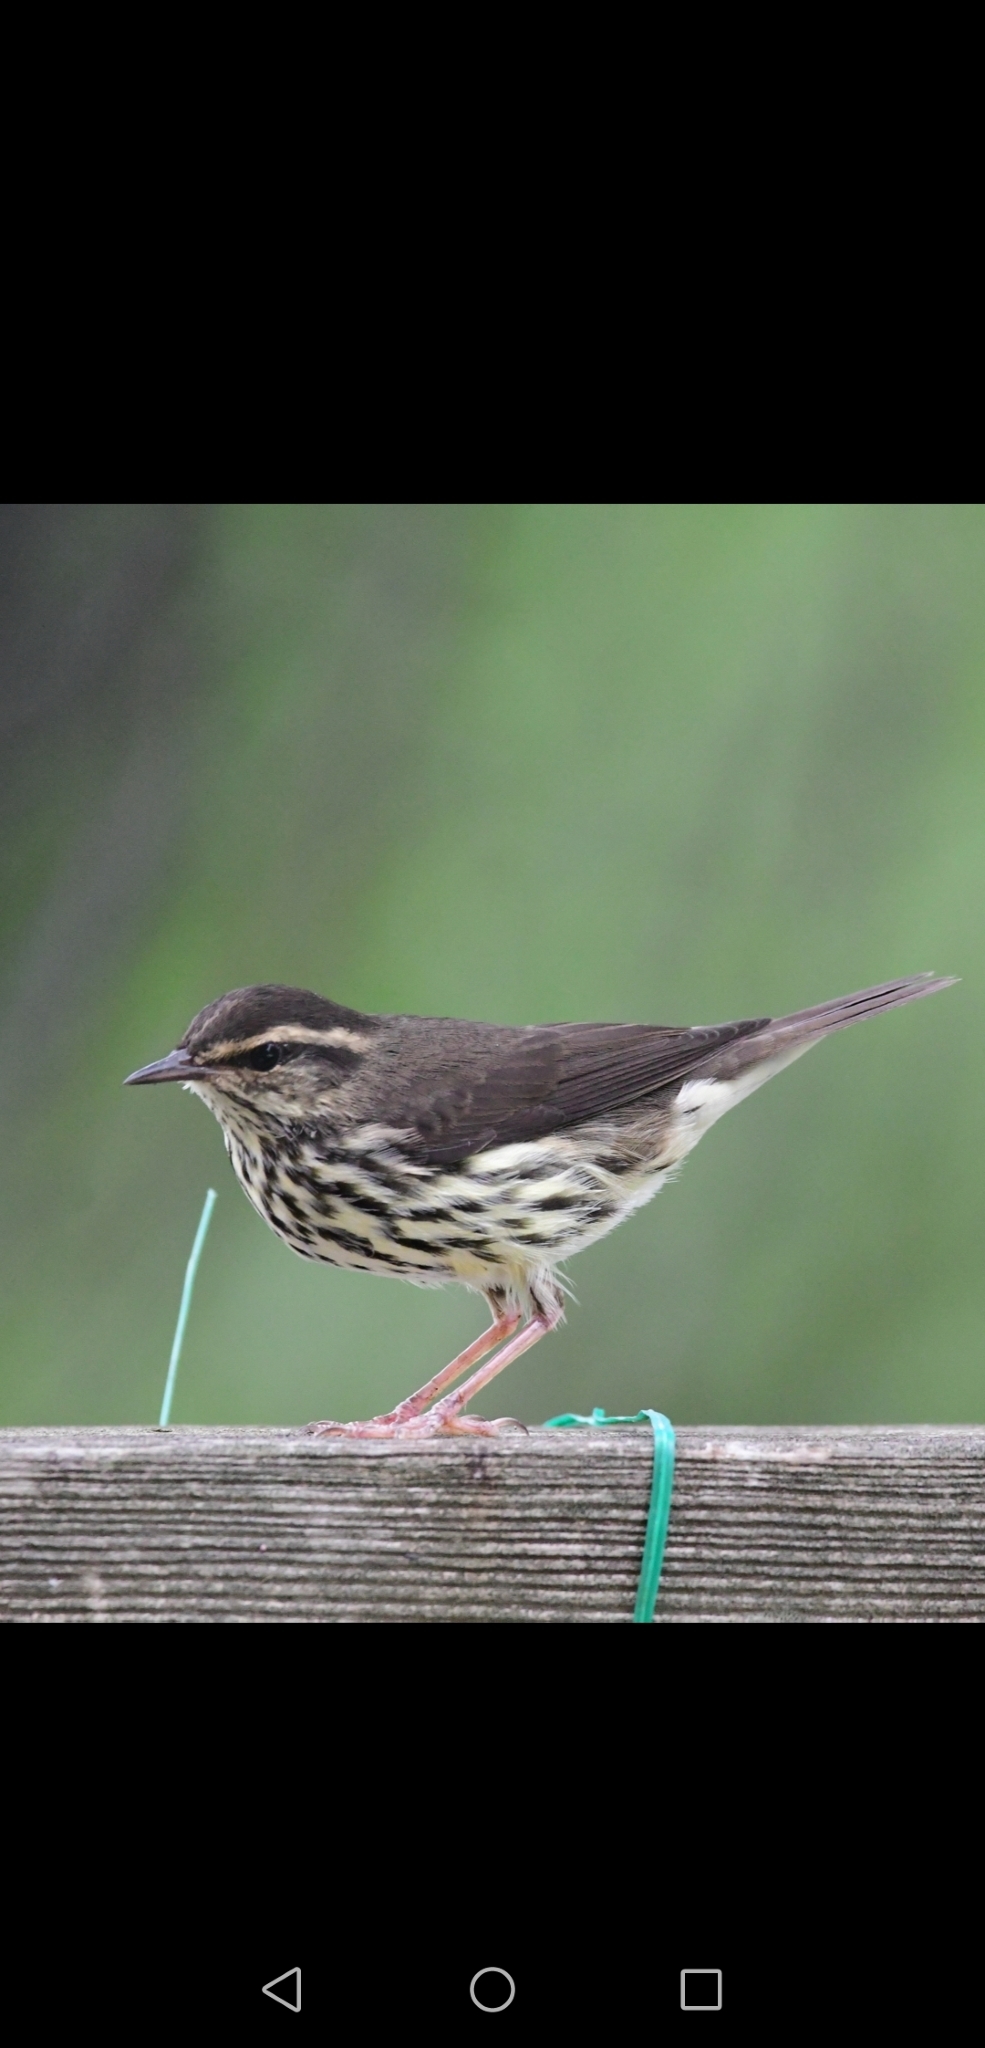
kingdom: Animalia
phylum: Chordata
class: Aves
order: Passeriformes
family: Parulidae
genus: Parkesia
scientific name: Parkesia noveboracensis
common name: Northern waterthrush
